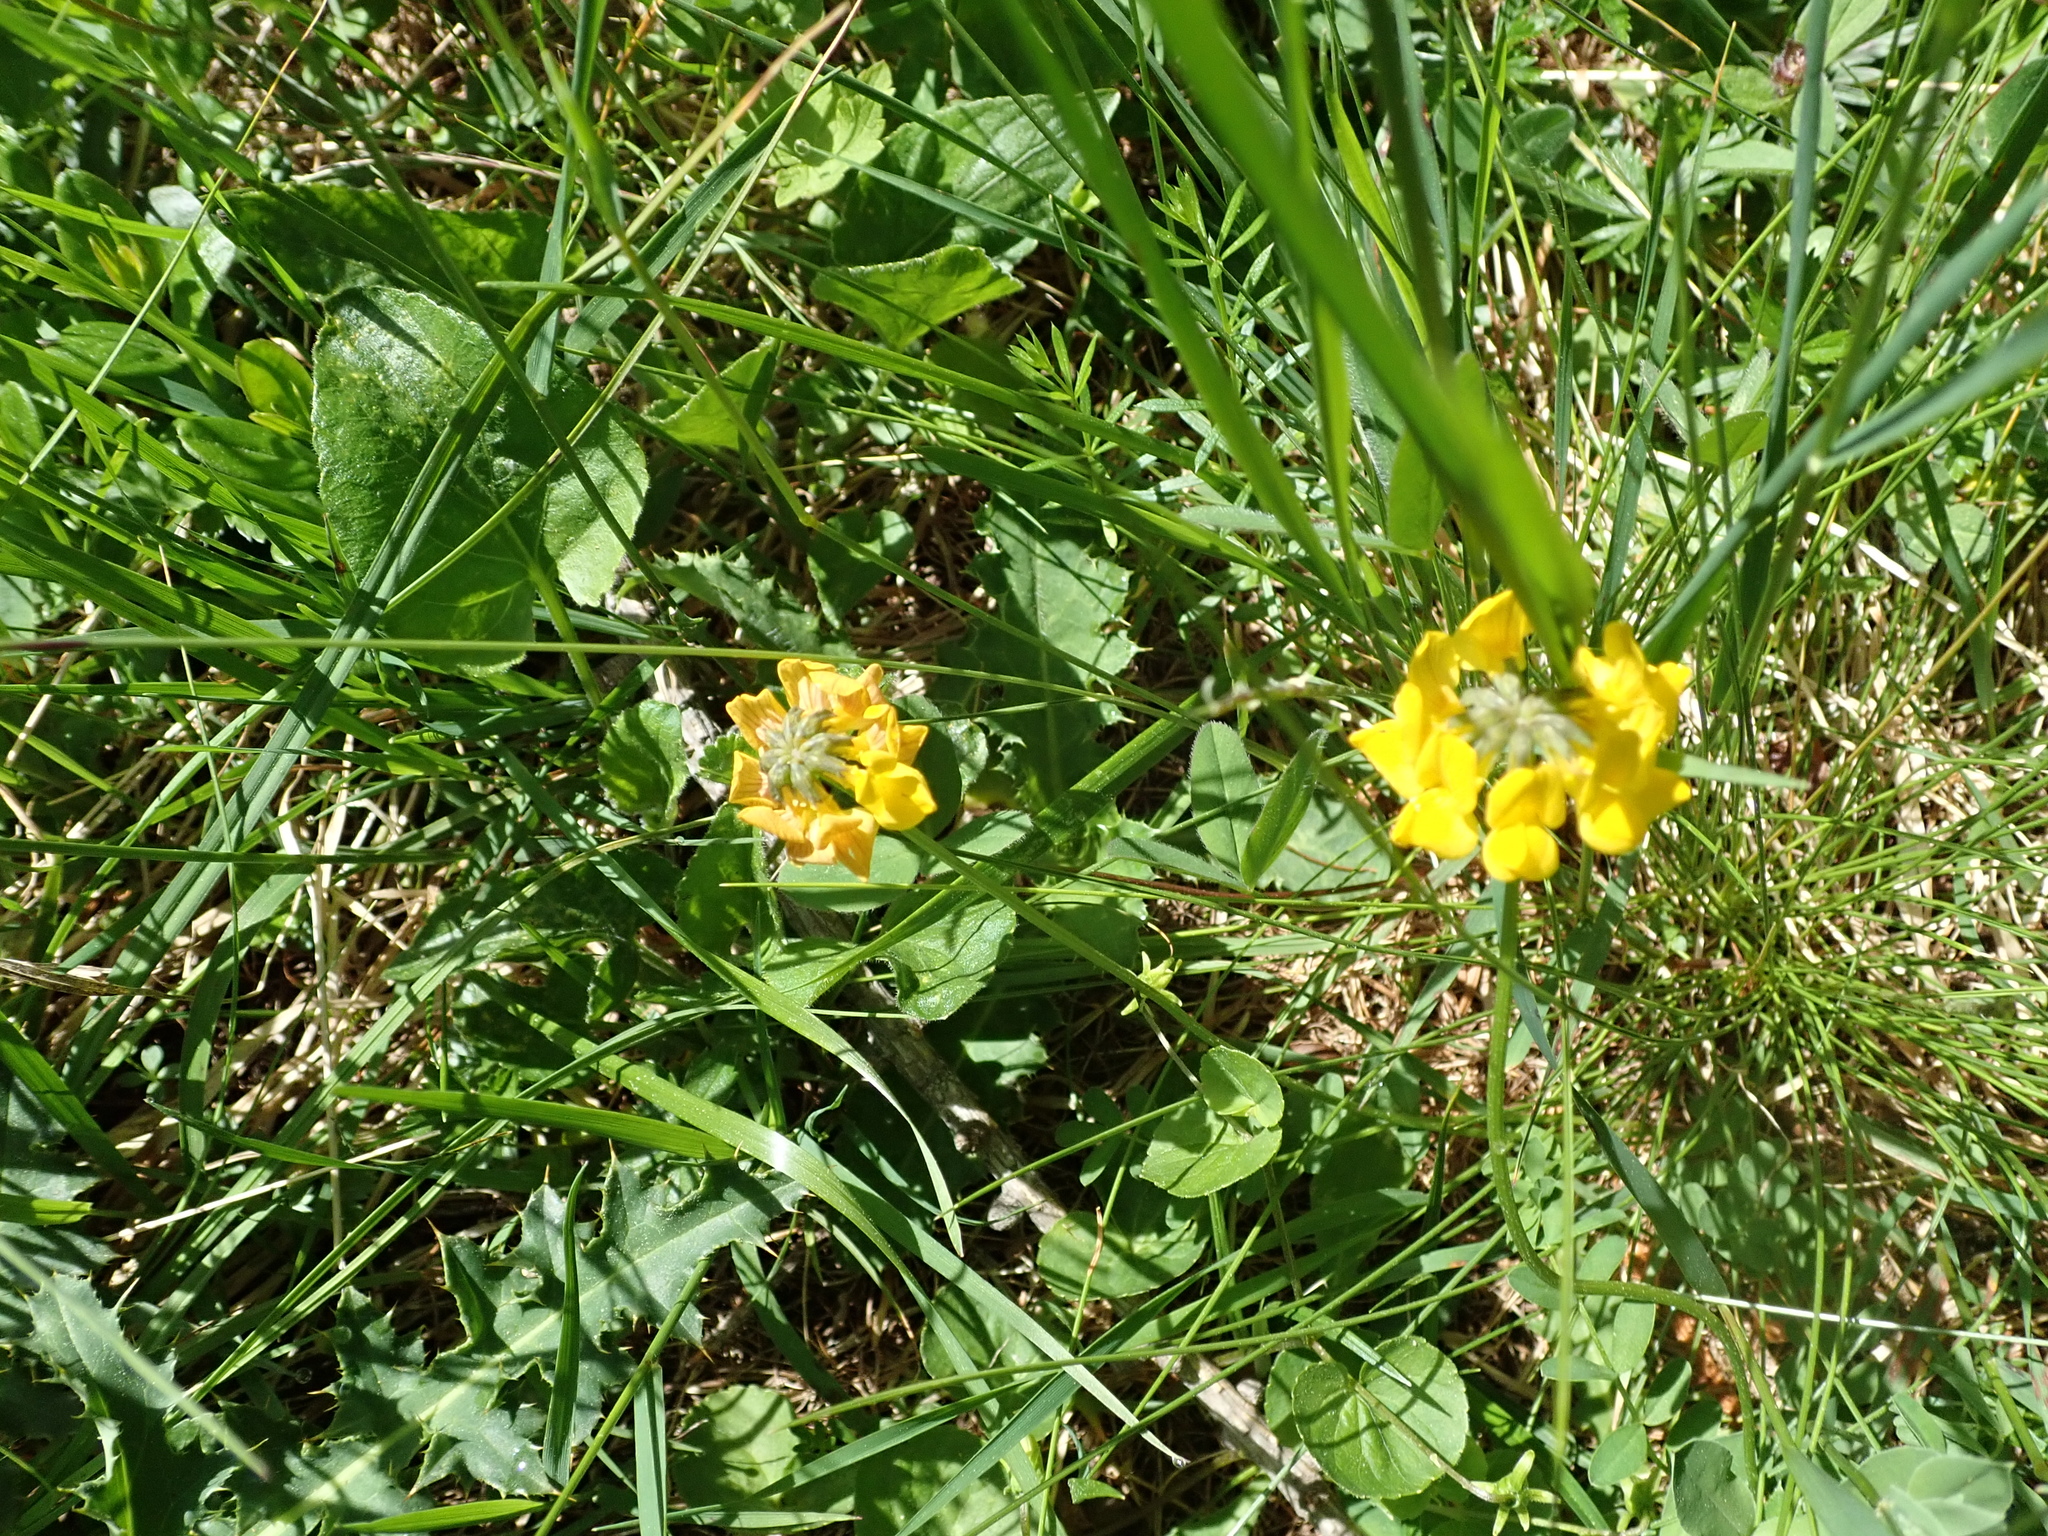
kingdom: Plantae
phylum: Tracheophyta
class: Magnoliopsida
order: Fabales
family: Fabaceae
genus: Hippocrepis
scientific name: Hippocrepis comosa
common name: Horseshoe vetch
